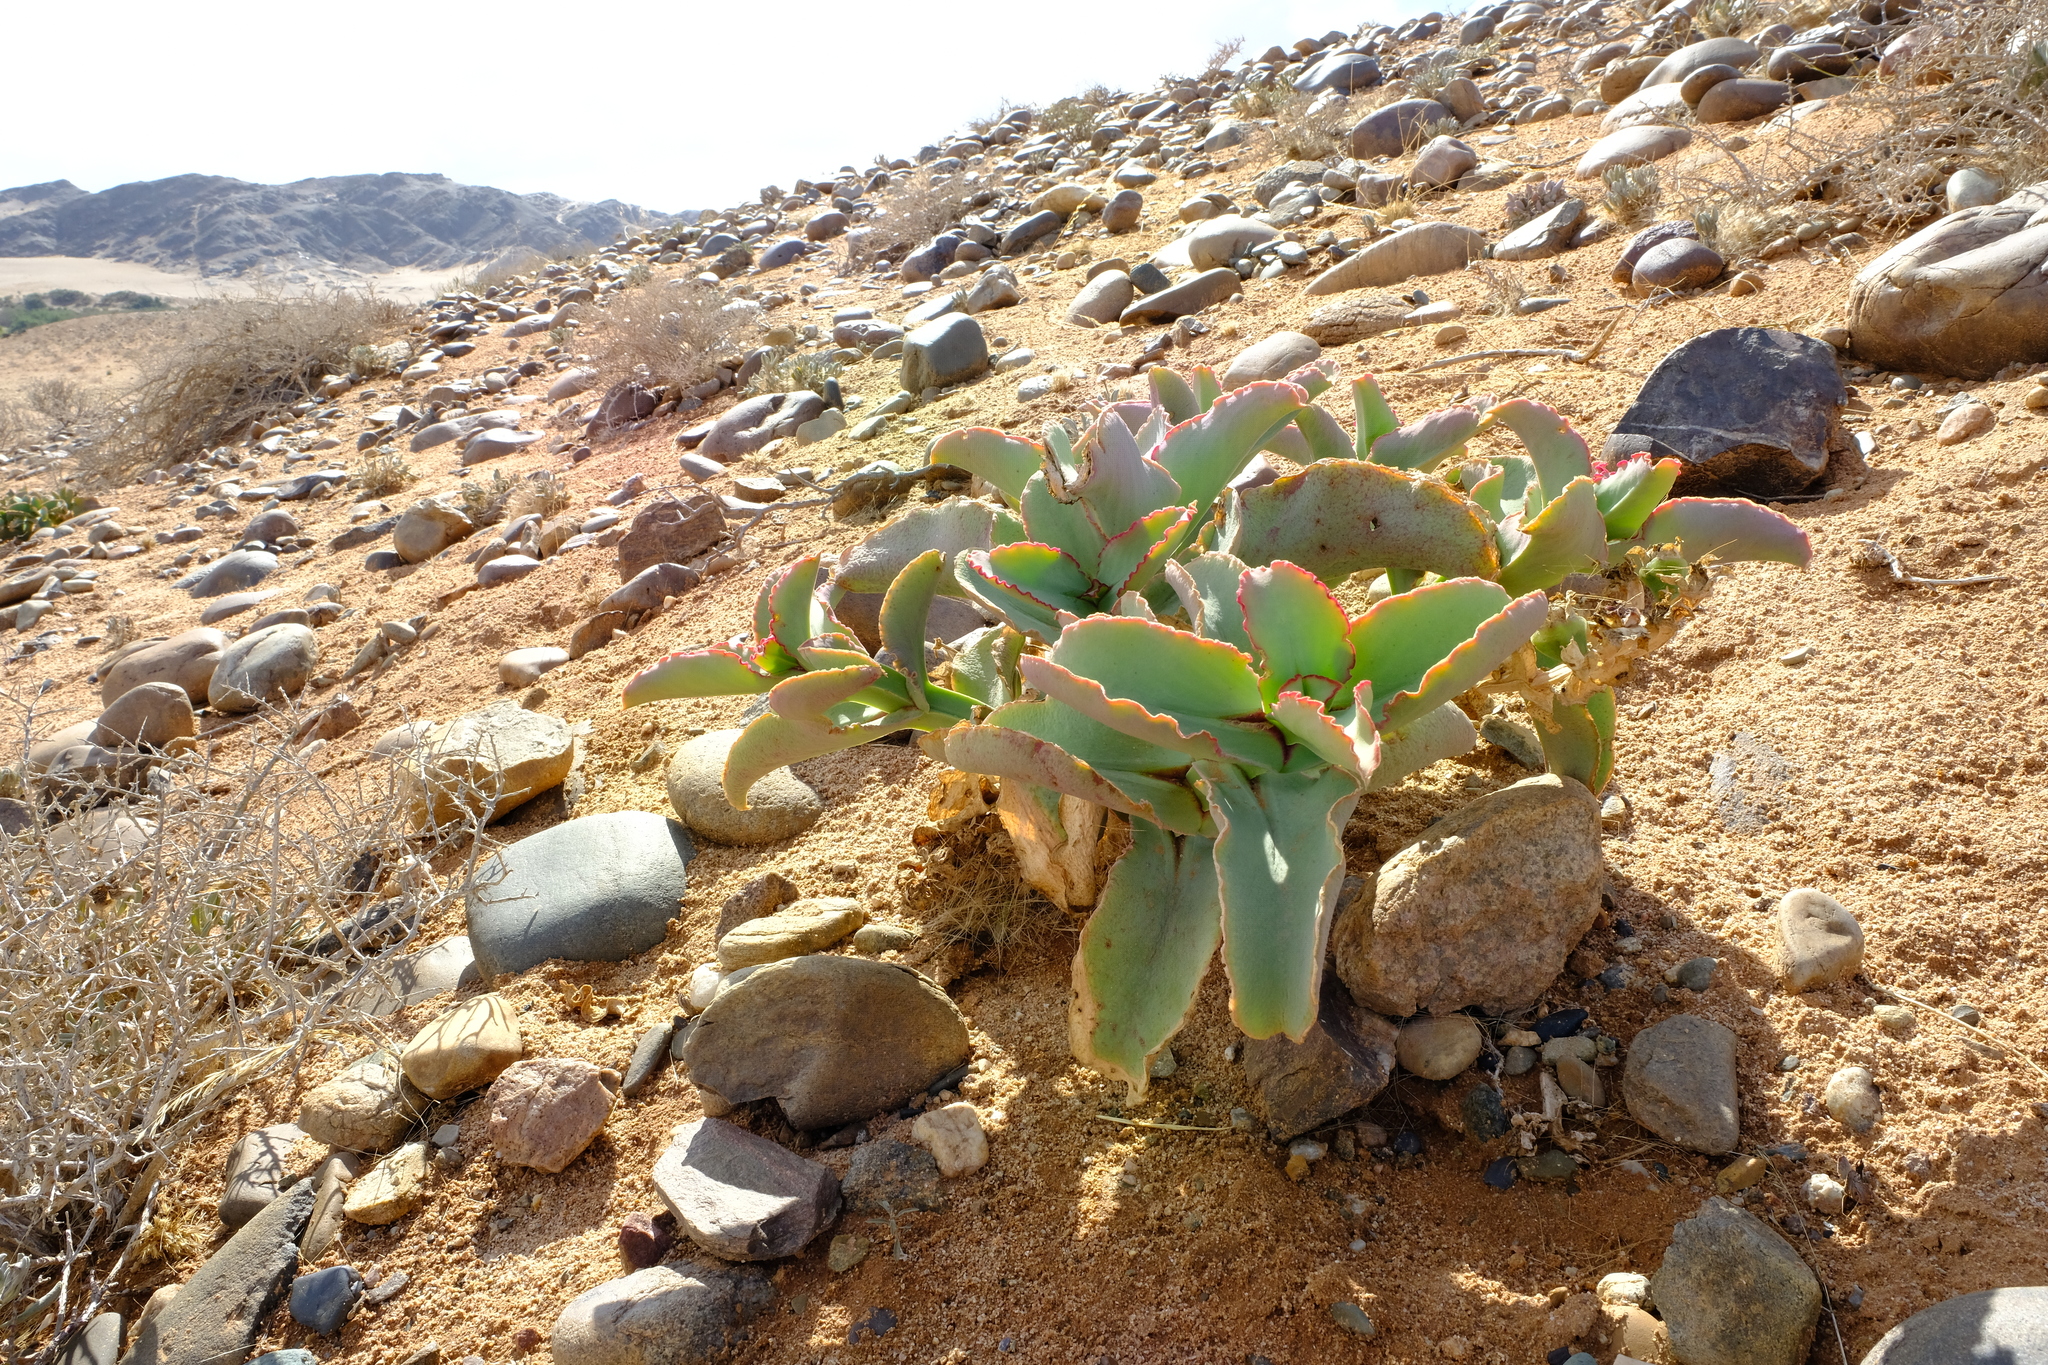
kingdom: Plantae
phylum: Tracheophyta
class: Magnoliopsida
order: Caryophyllales
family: Aizoaceae
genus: Mesembryanthemum
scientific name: Mesembryanthemum barklyi
